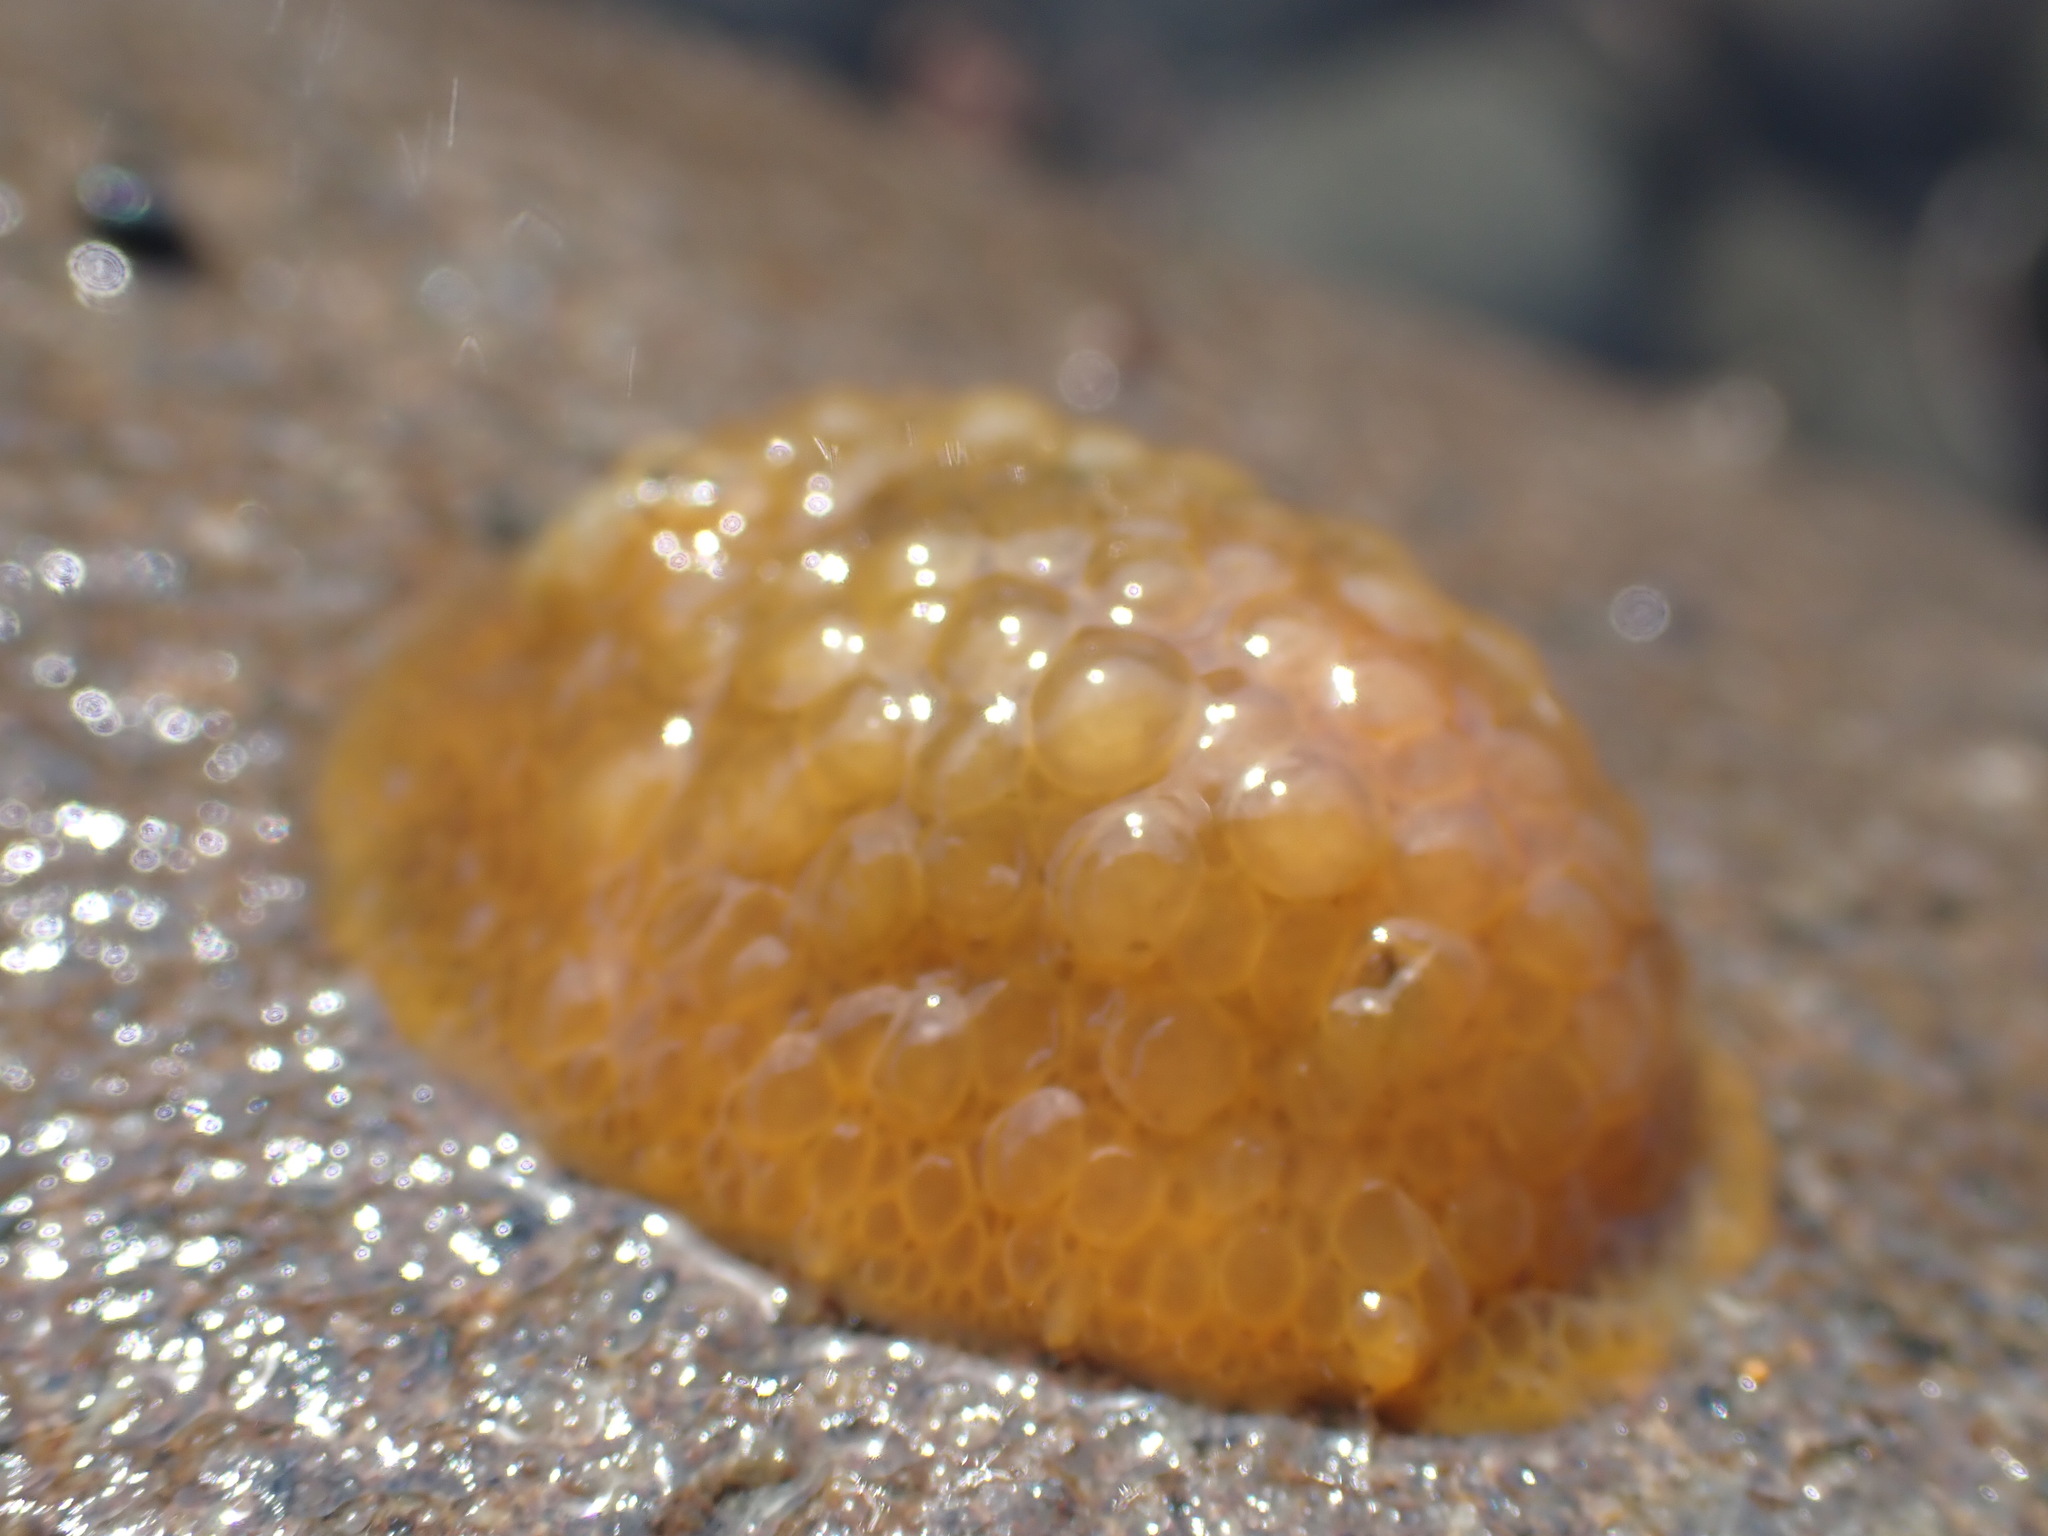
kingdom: Animalia
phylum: Mollusca
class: Gastropoda
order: Nudibranchia
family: Dorididae
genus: Doris
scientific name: Doris wellingtonensis
